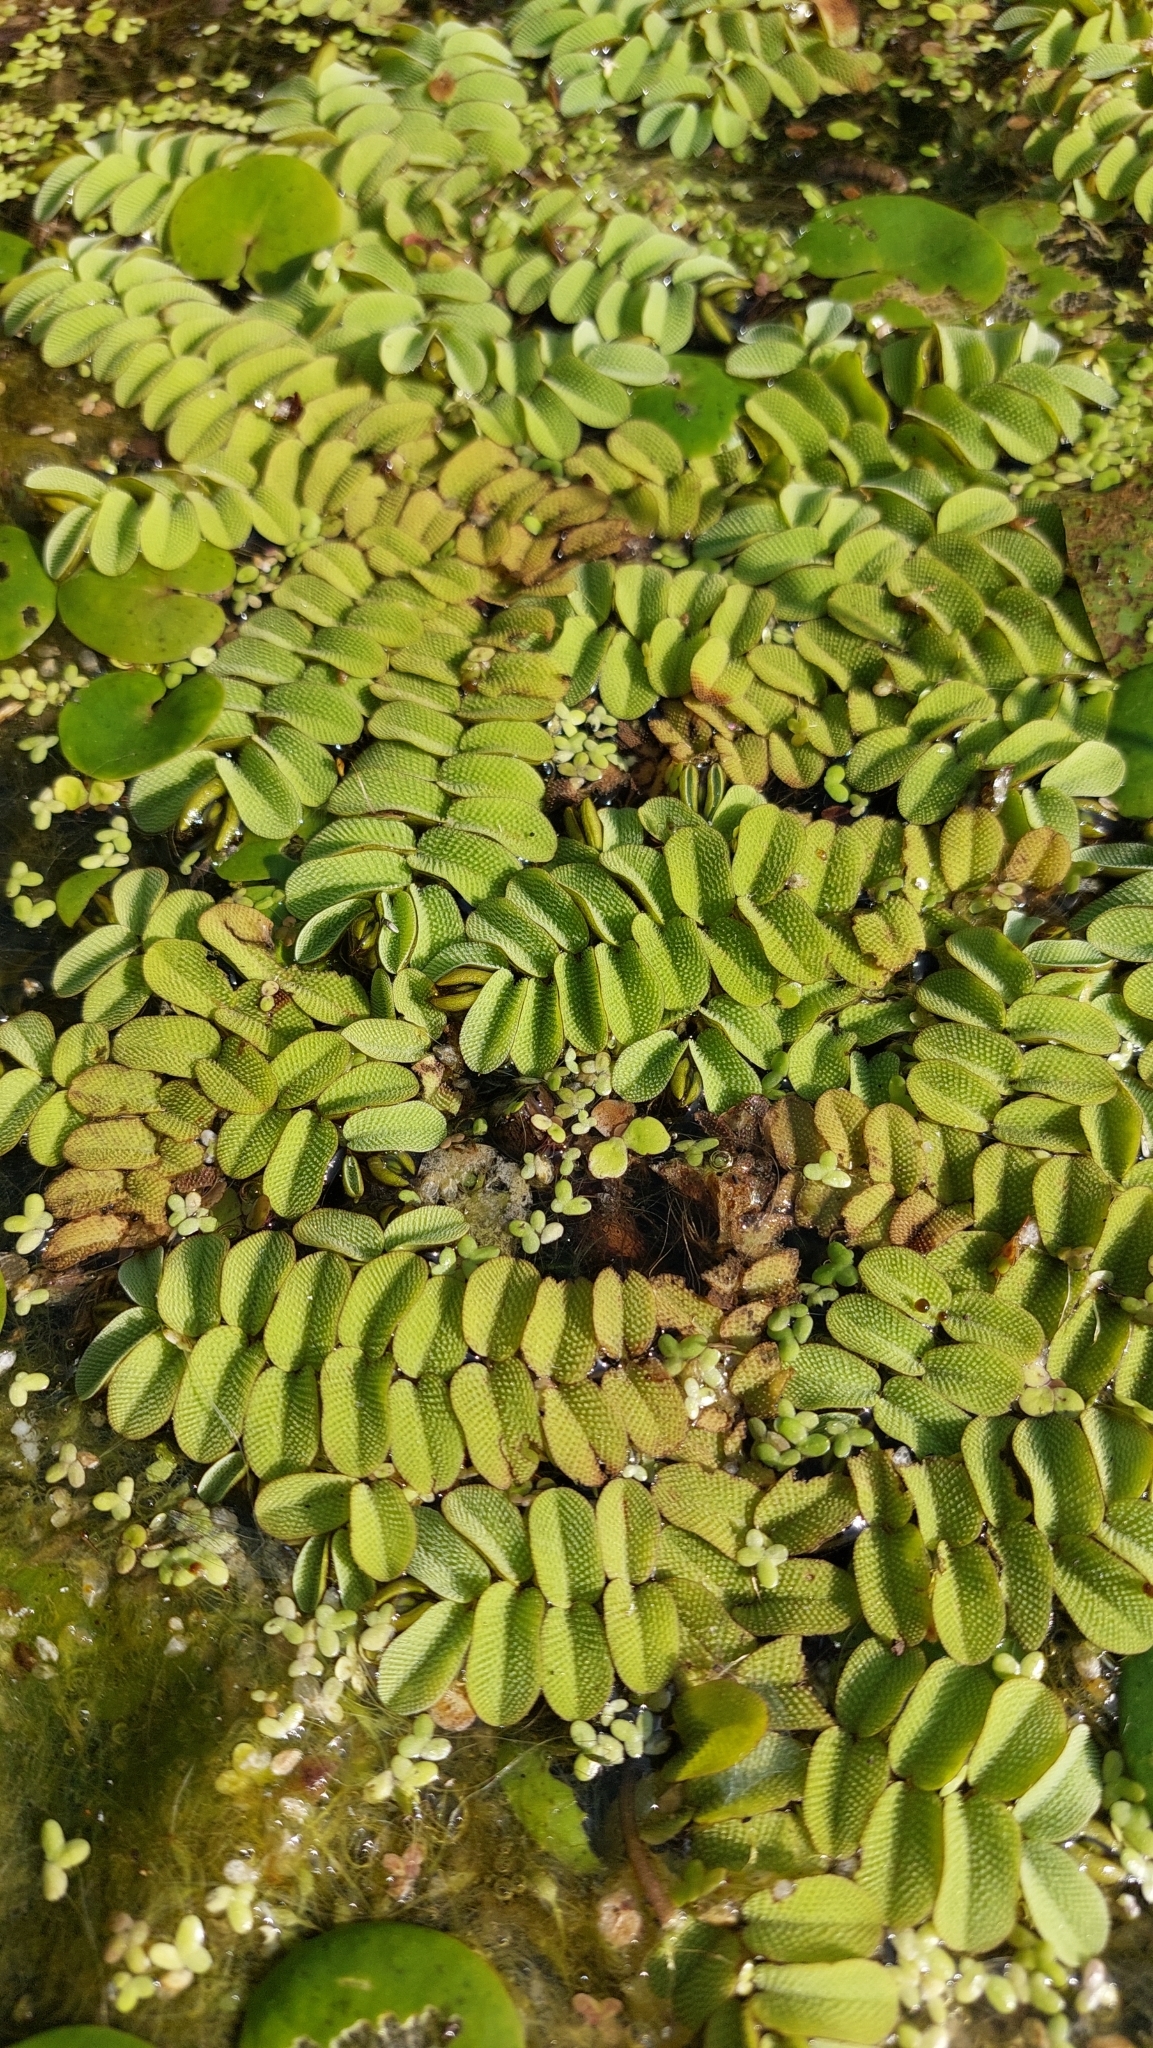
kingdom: Plantae
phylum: Tracheophyta
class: Polypodiopsida
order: Salviniales
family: Salviniaceae
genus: Salvinia
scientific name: Salvinia natans
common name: Floating fern
